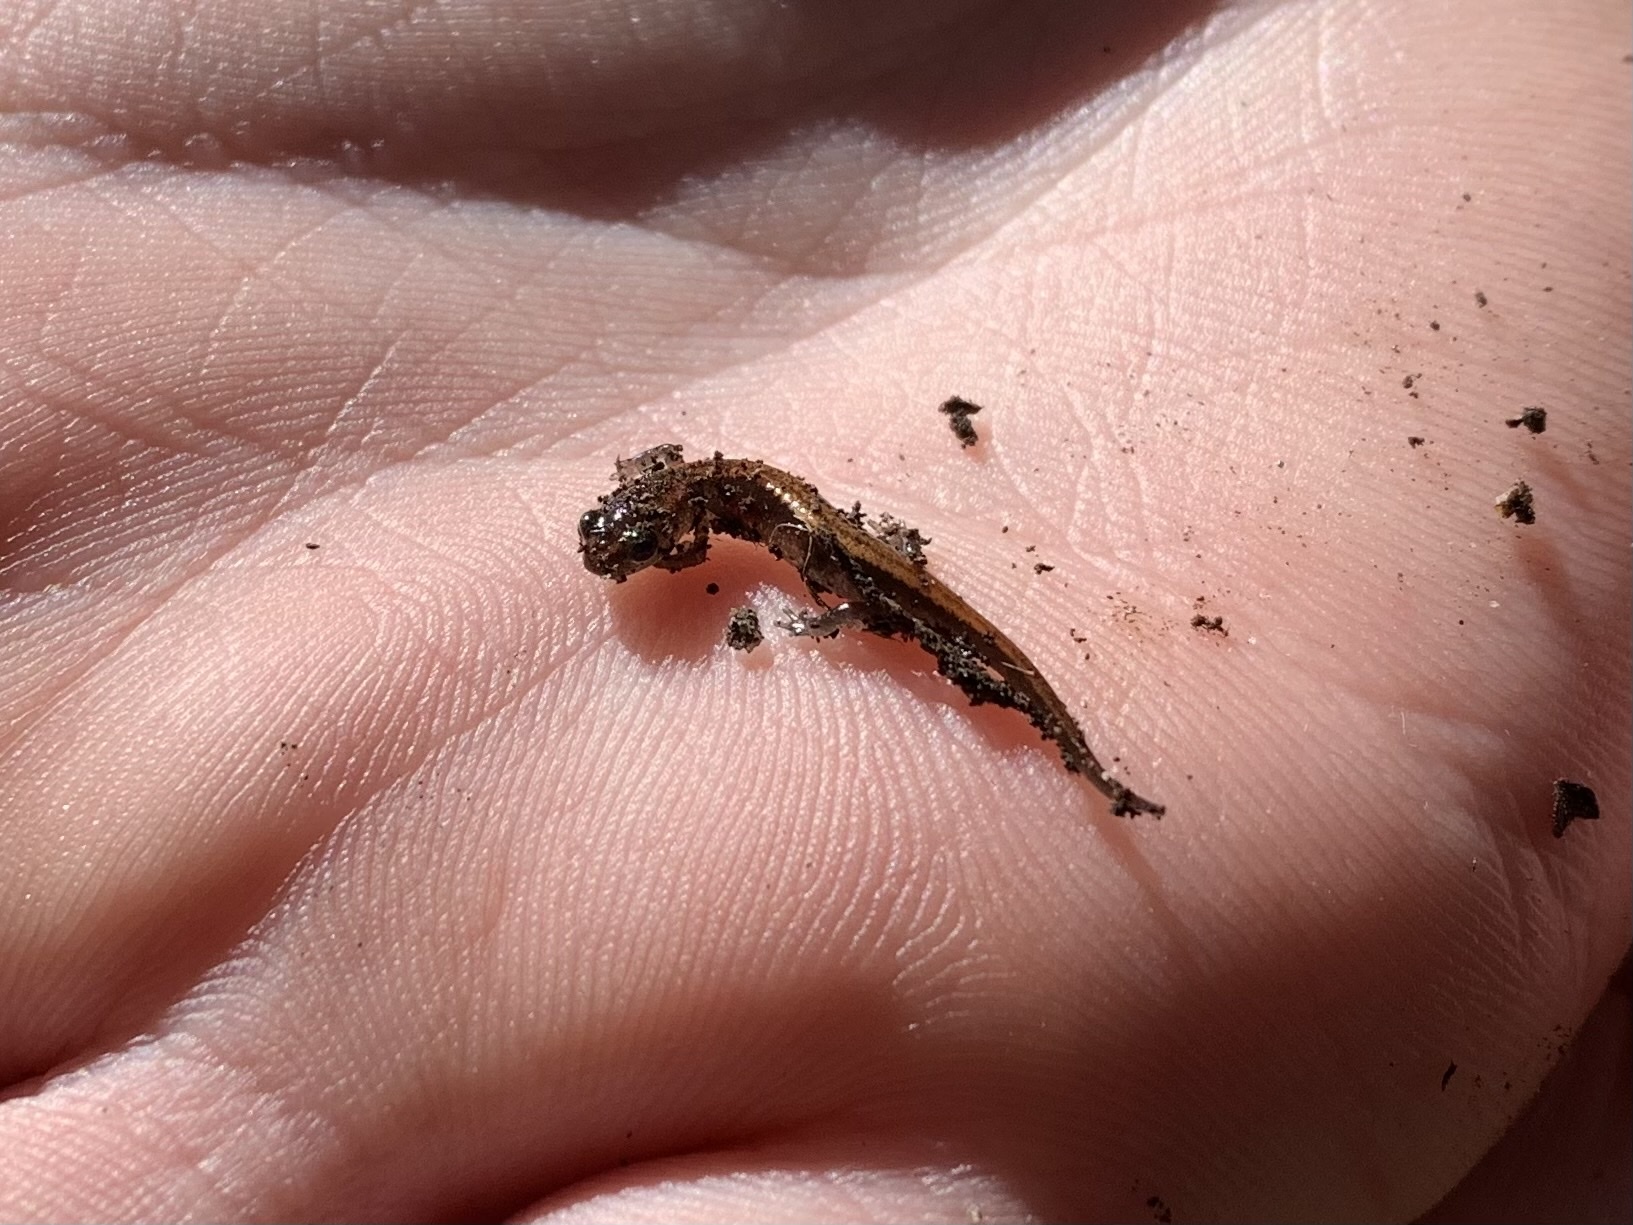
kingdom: Animalia
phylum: Chordata
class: Amphibia
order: Caudata
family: Plethodontidae
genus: Plethodon
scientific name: Plethodon cinereus
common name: Redback salamander
